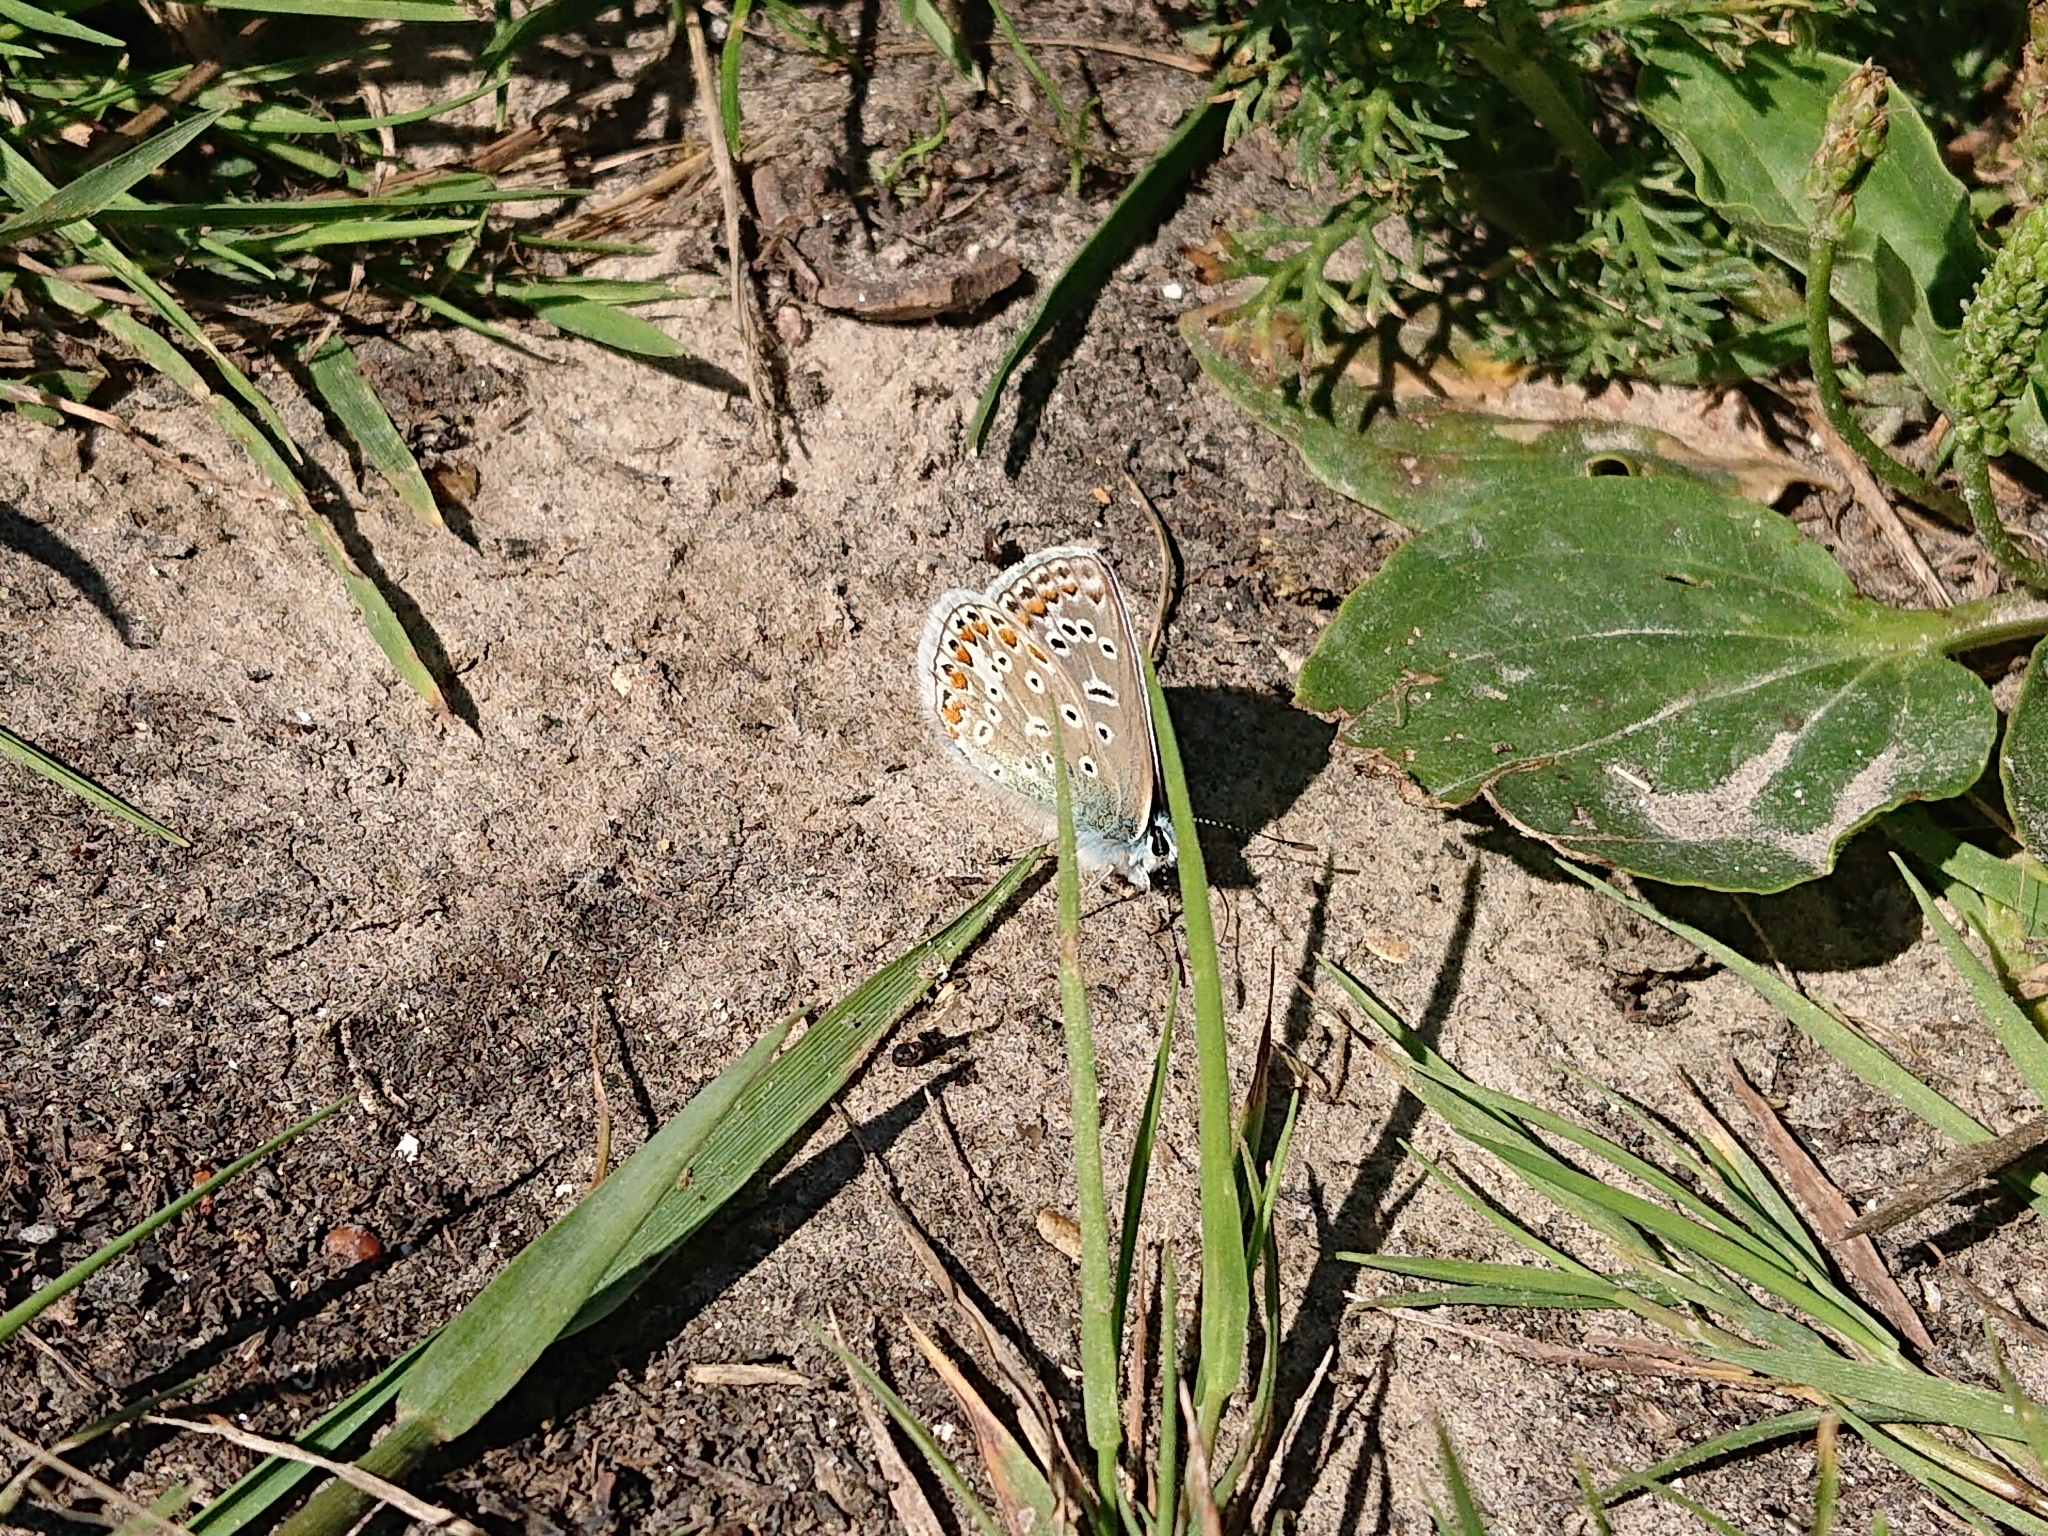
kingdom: Animalia
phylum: Arthropoda
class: Insecta
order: Lepidoptera
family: Lycaenidae
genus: Polyommatus
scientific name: Polyommatus icarus
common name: Common blue
